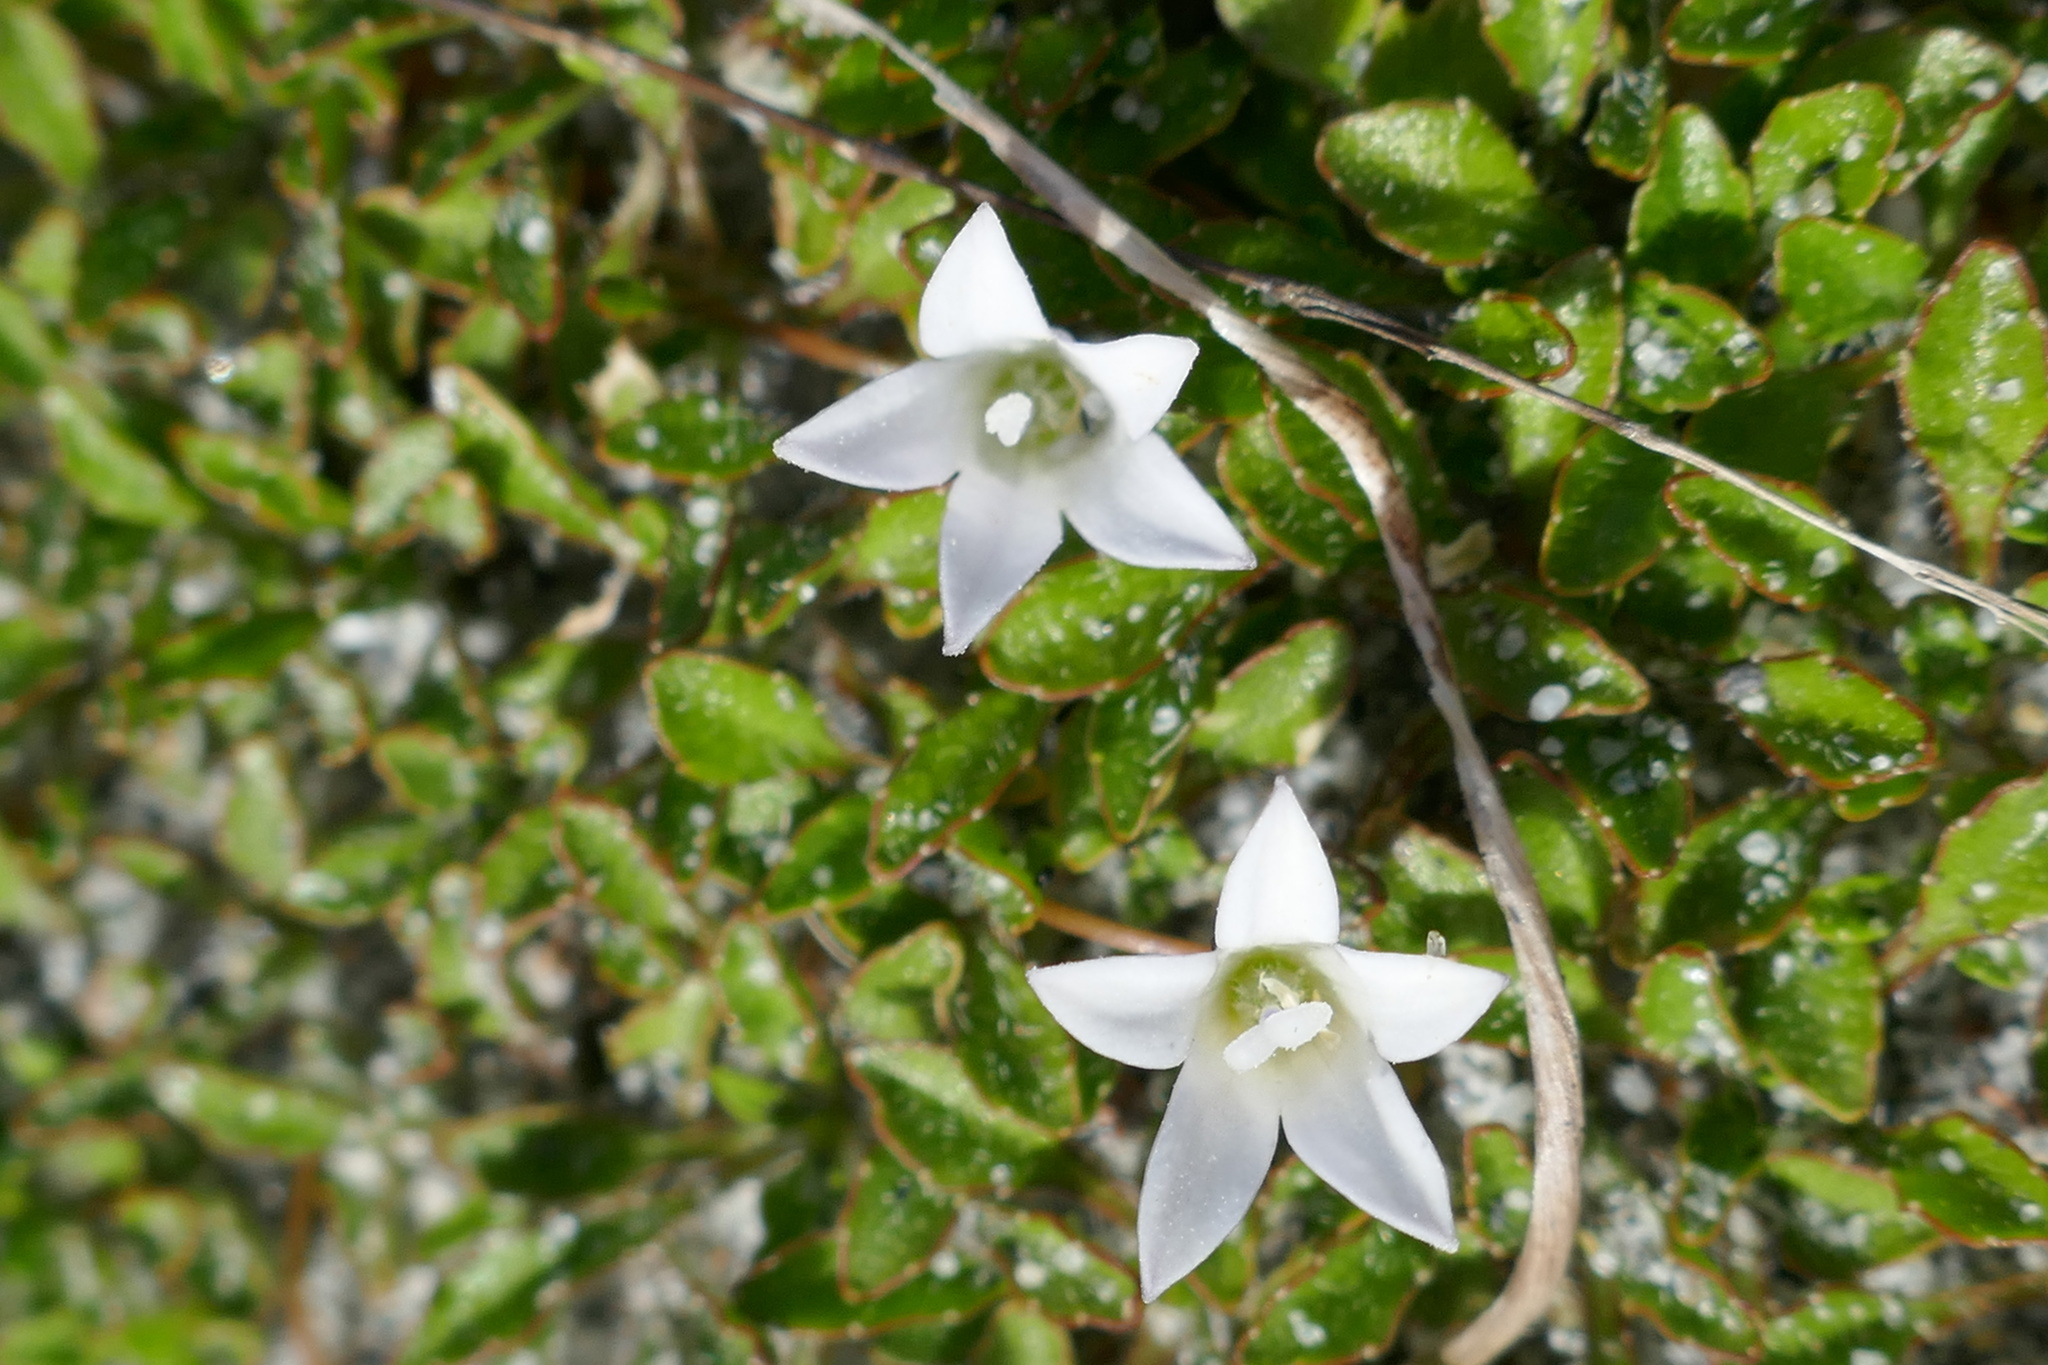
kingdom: Plantae
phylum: Tracheophyta
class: Magnoliopsida
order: Asterales
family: Campanulaceae
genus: Wahlenbergia
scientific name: Wahlenbergia congesta
